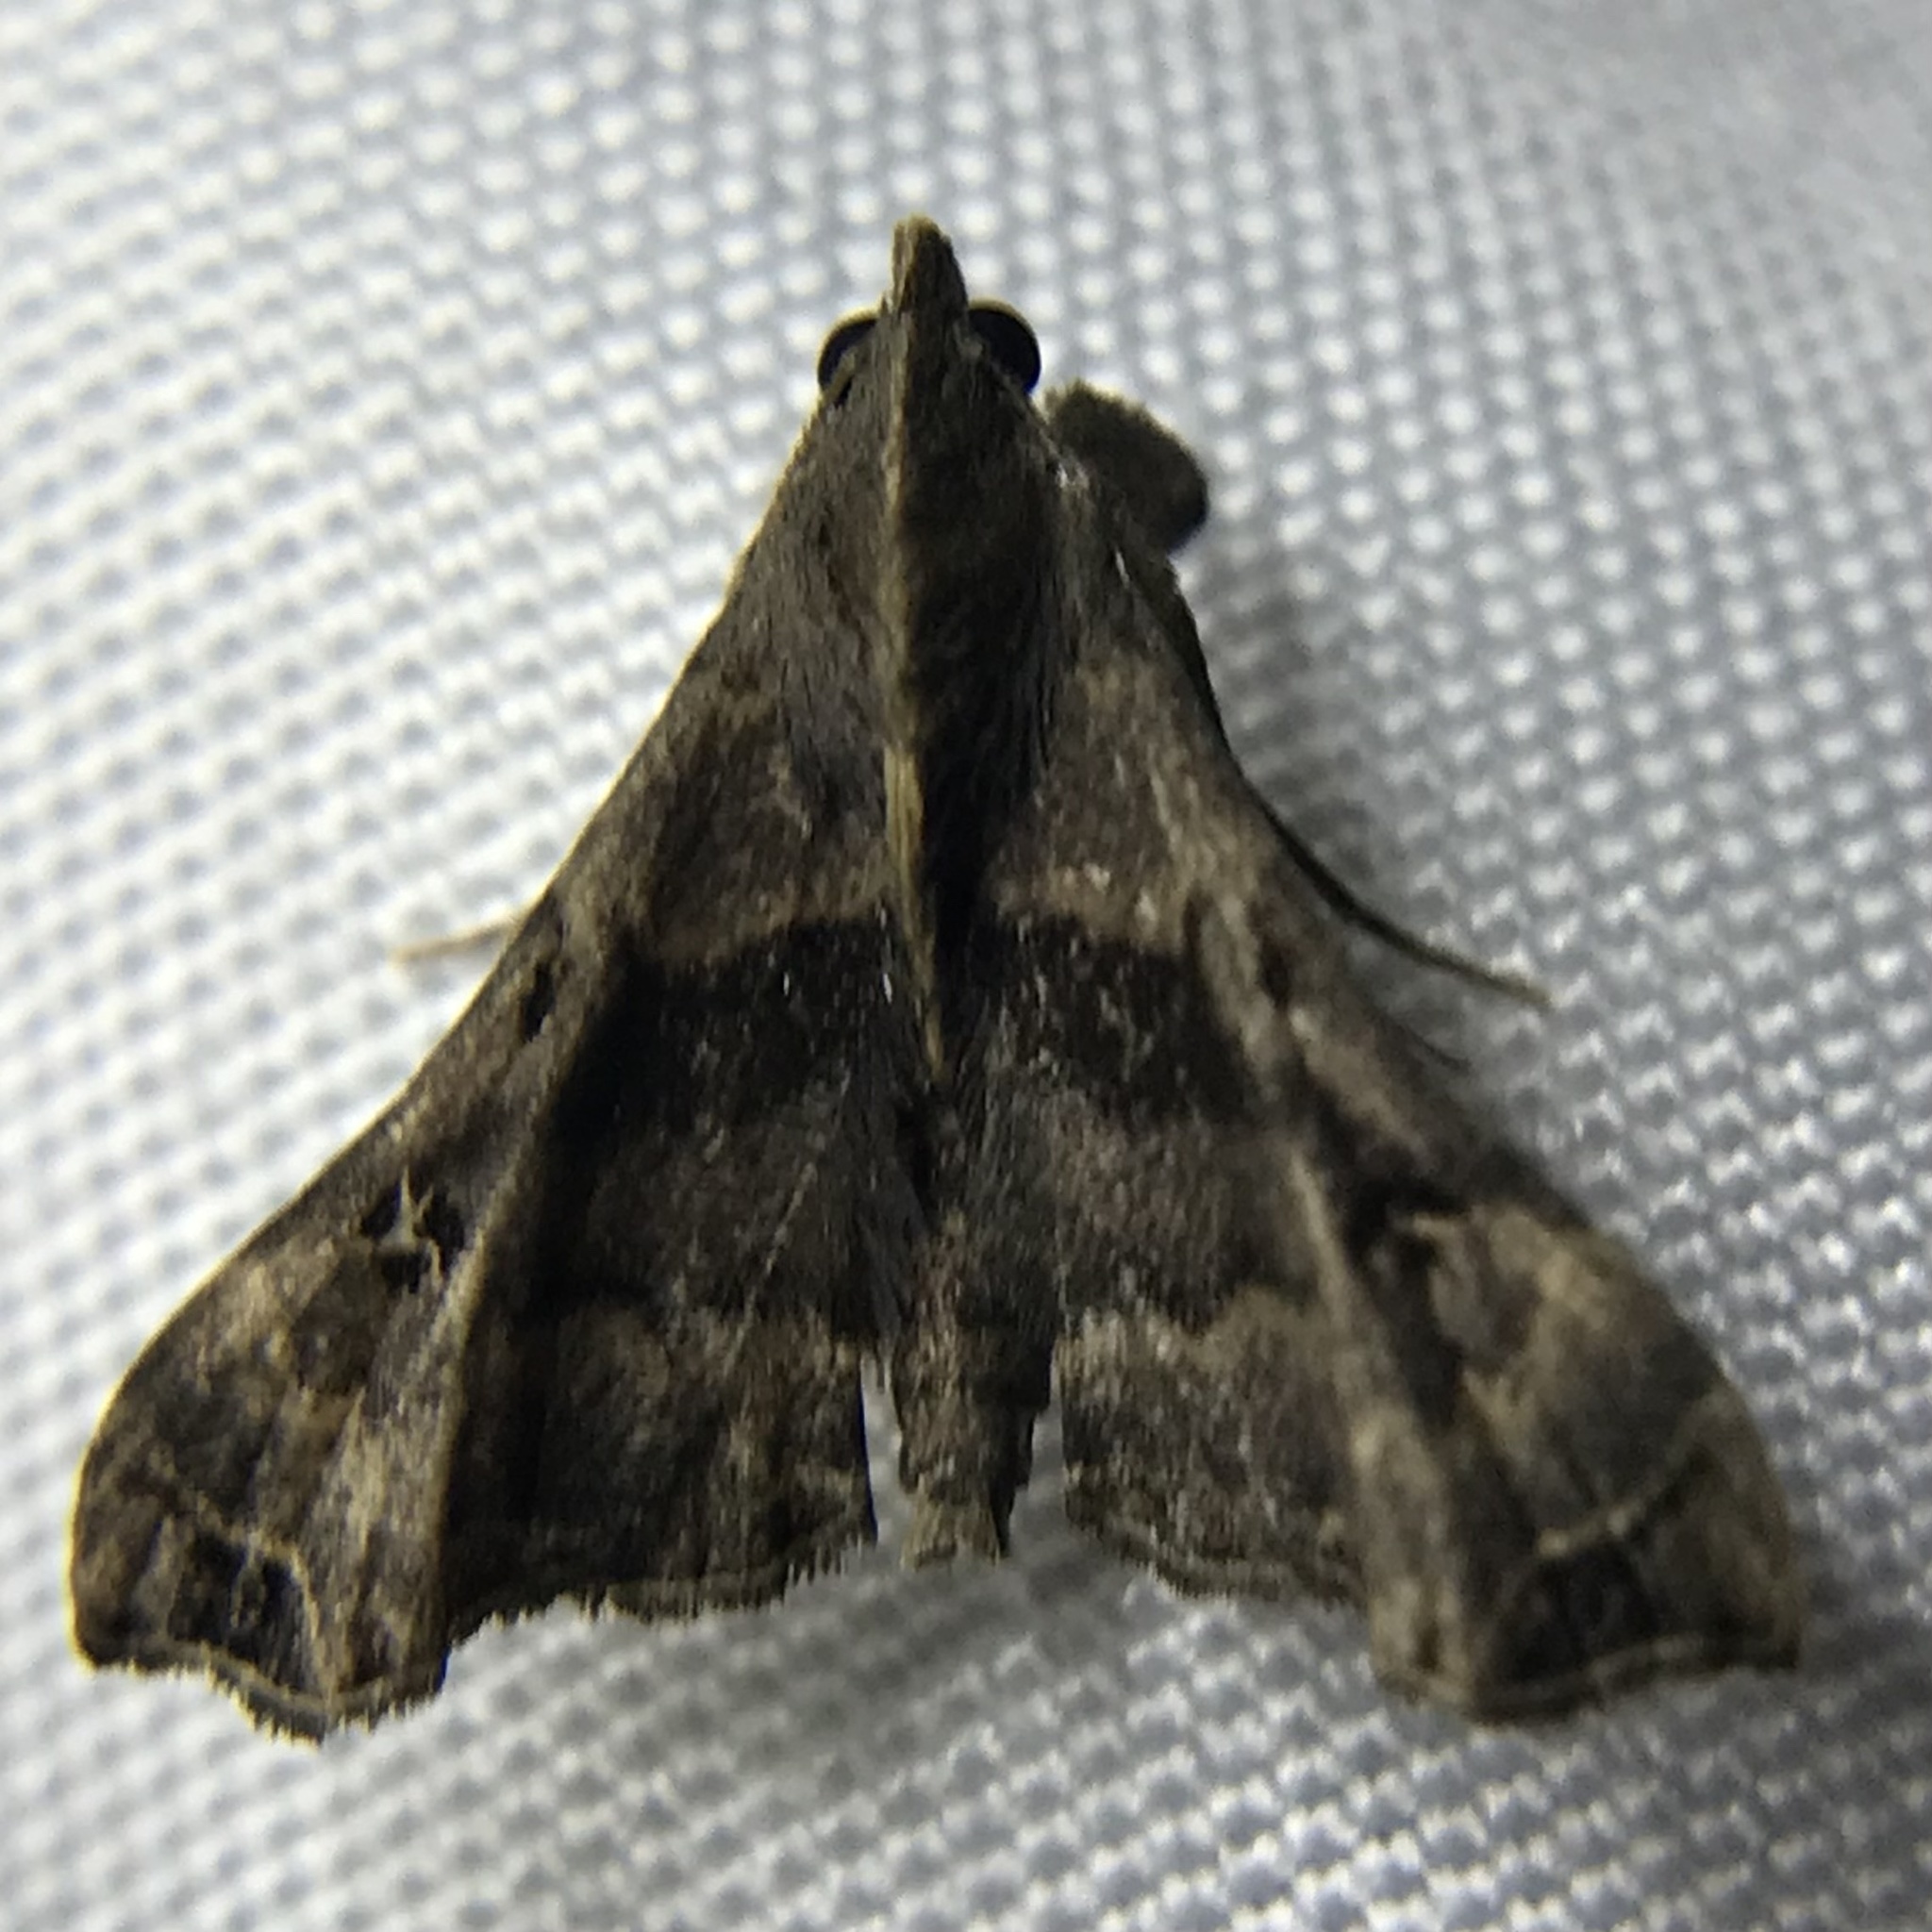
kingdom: Animalia
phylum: Arthropoda
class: Insecta
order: Lepidoptera
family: Erebidae
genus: Palthis
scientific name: Palthis asopialis
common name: Faint-spotted palthis moth
